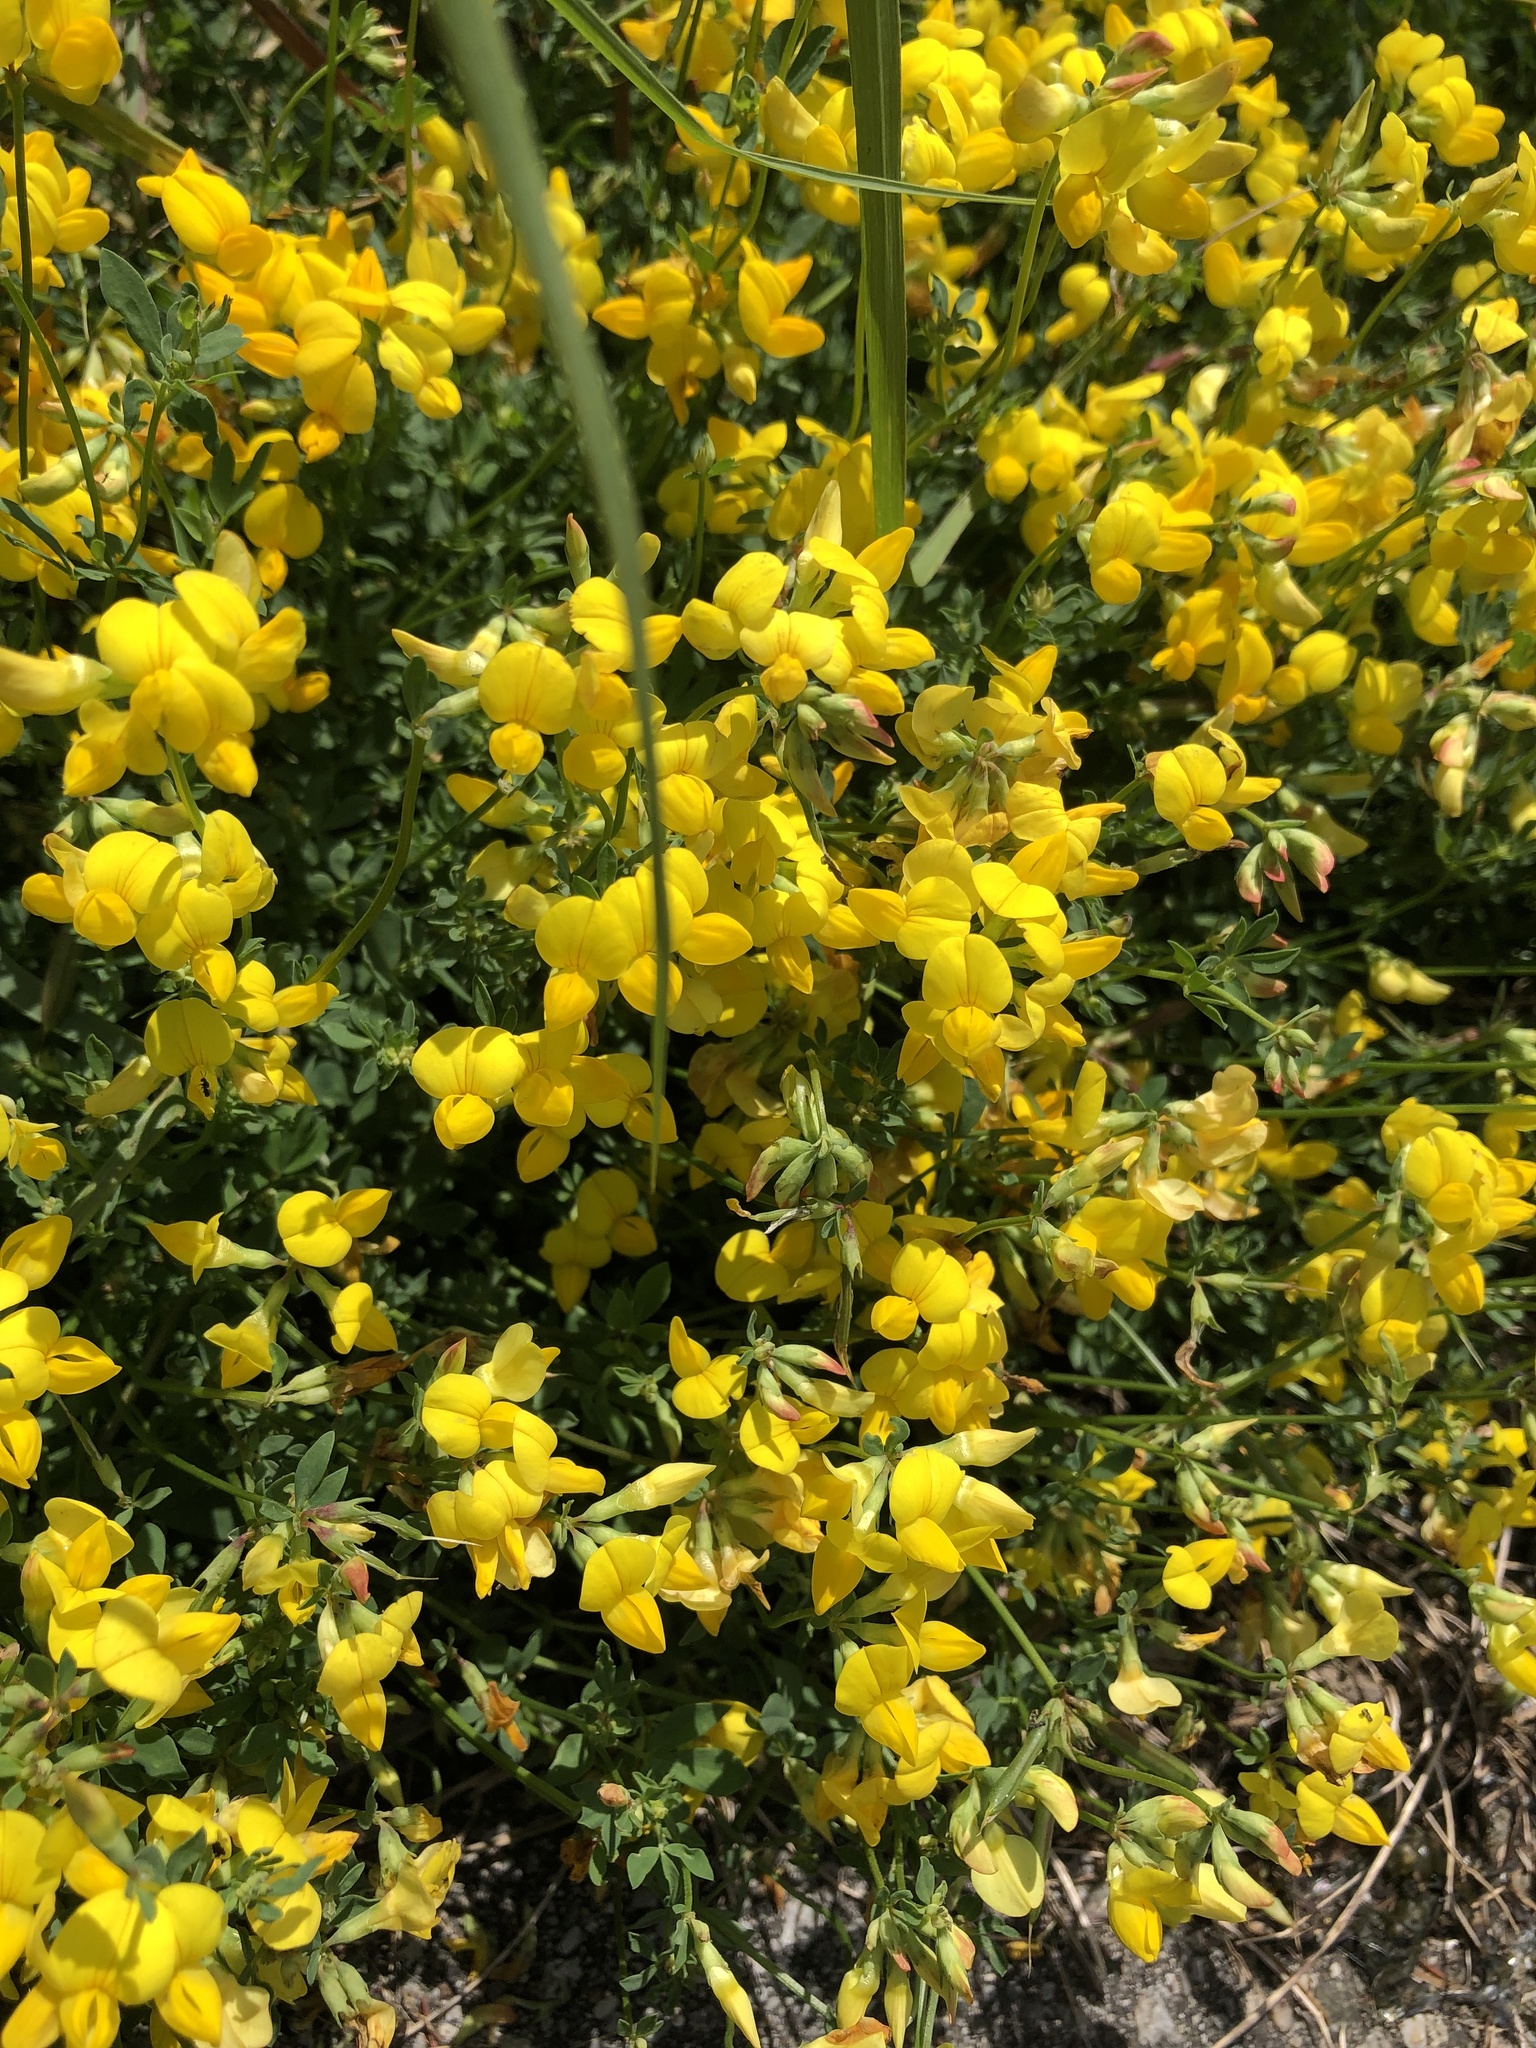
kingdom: Plantae
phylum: Tracheophyta
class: Magnoliopsida
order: Fabales
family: Fabaceae
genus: Lotus
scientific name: Lotus corniculatus
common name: Common bird's-foot-trefoil
